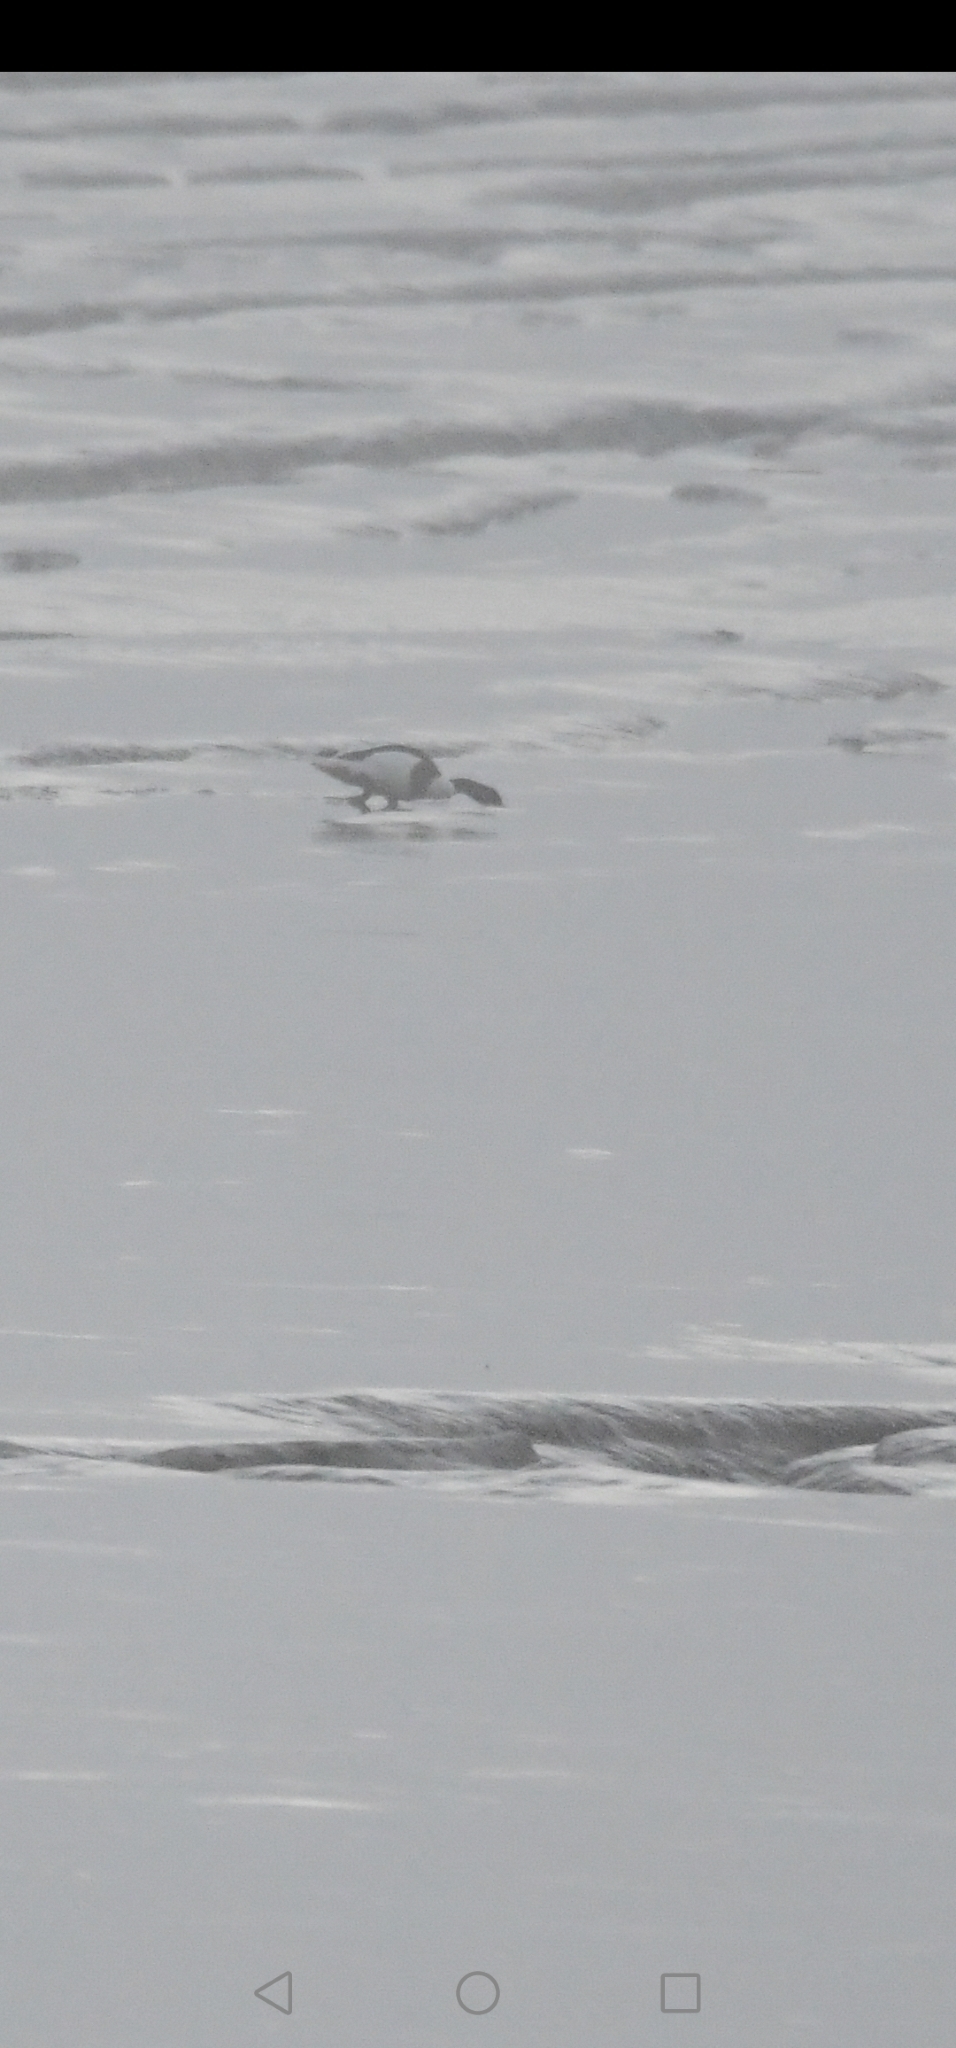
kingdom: Animalia
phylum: Chordata
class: Aves
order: Anseriformes
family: Anatidae
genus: Tadorna
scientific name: Tadorna tadorna
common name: Common shelduck
